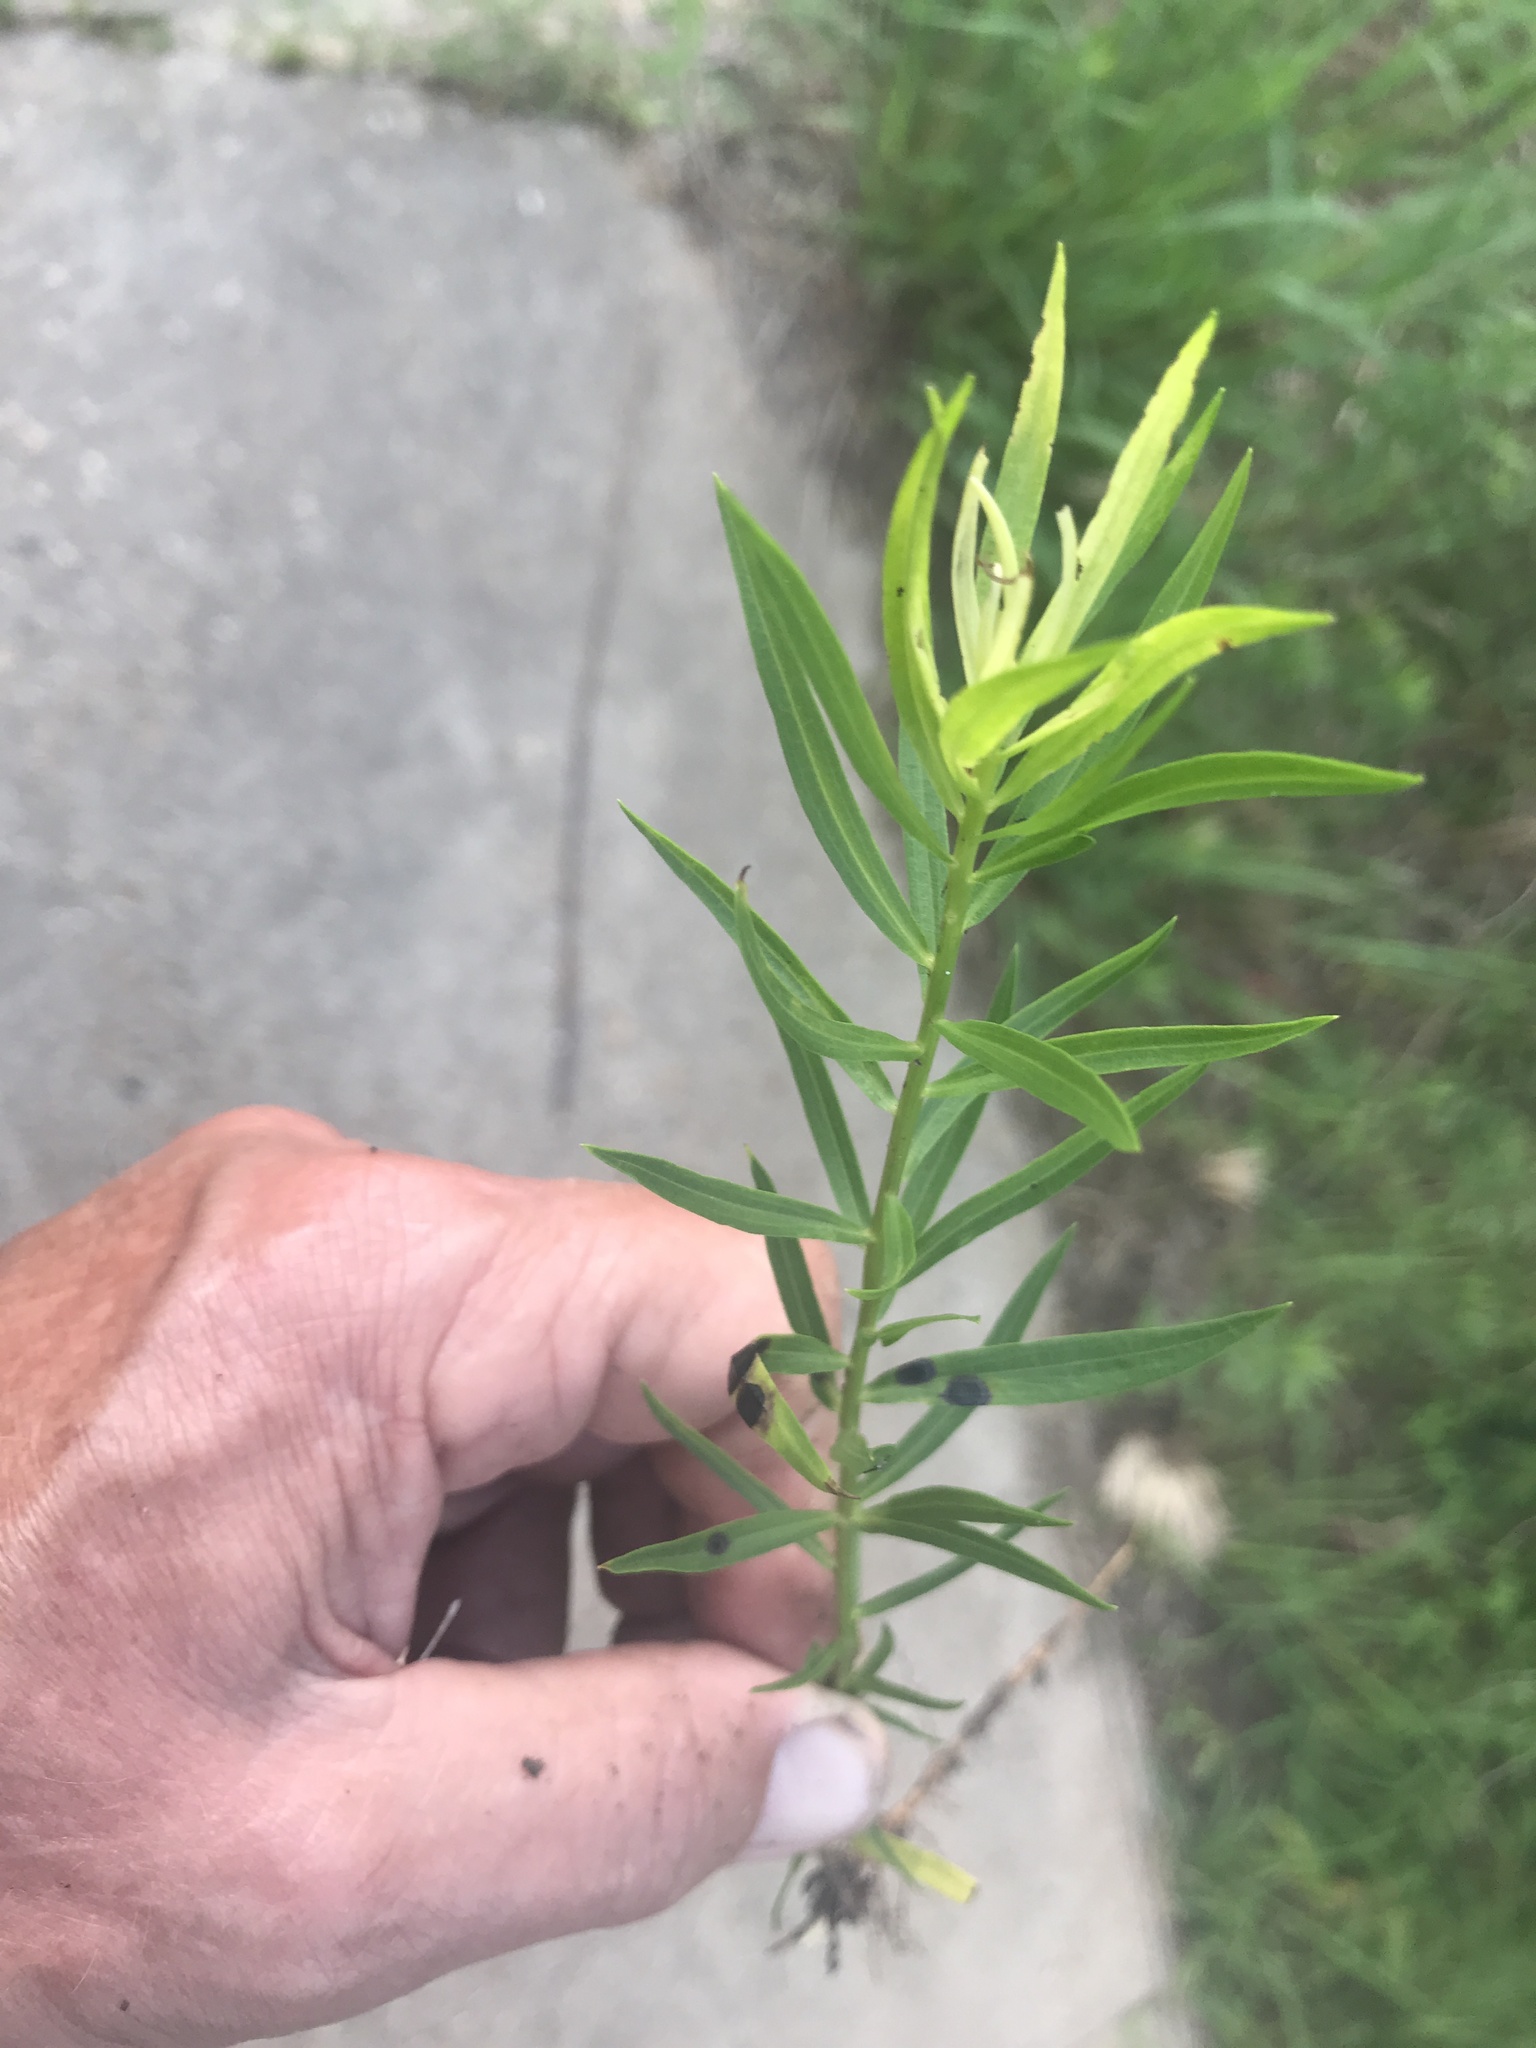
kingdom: Plantae
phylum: Tracheophyta
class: Magnoliopsida
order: Asterales
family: Asteraceae
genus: Iva
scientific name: Iva asperifolia
